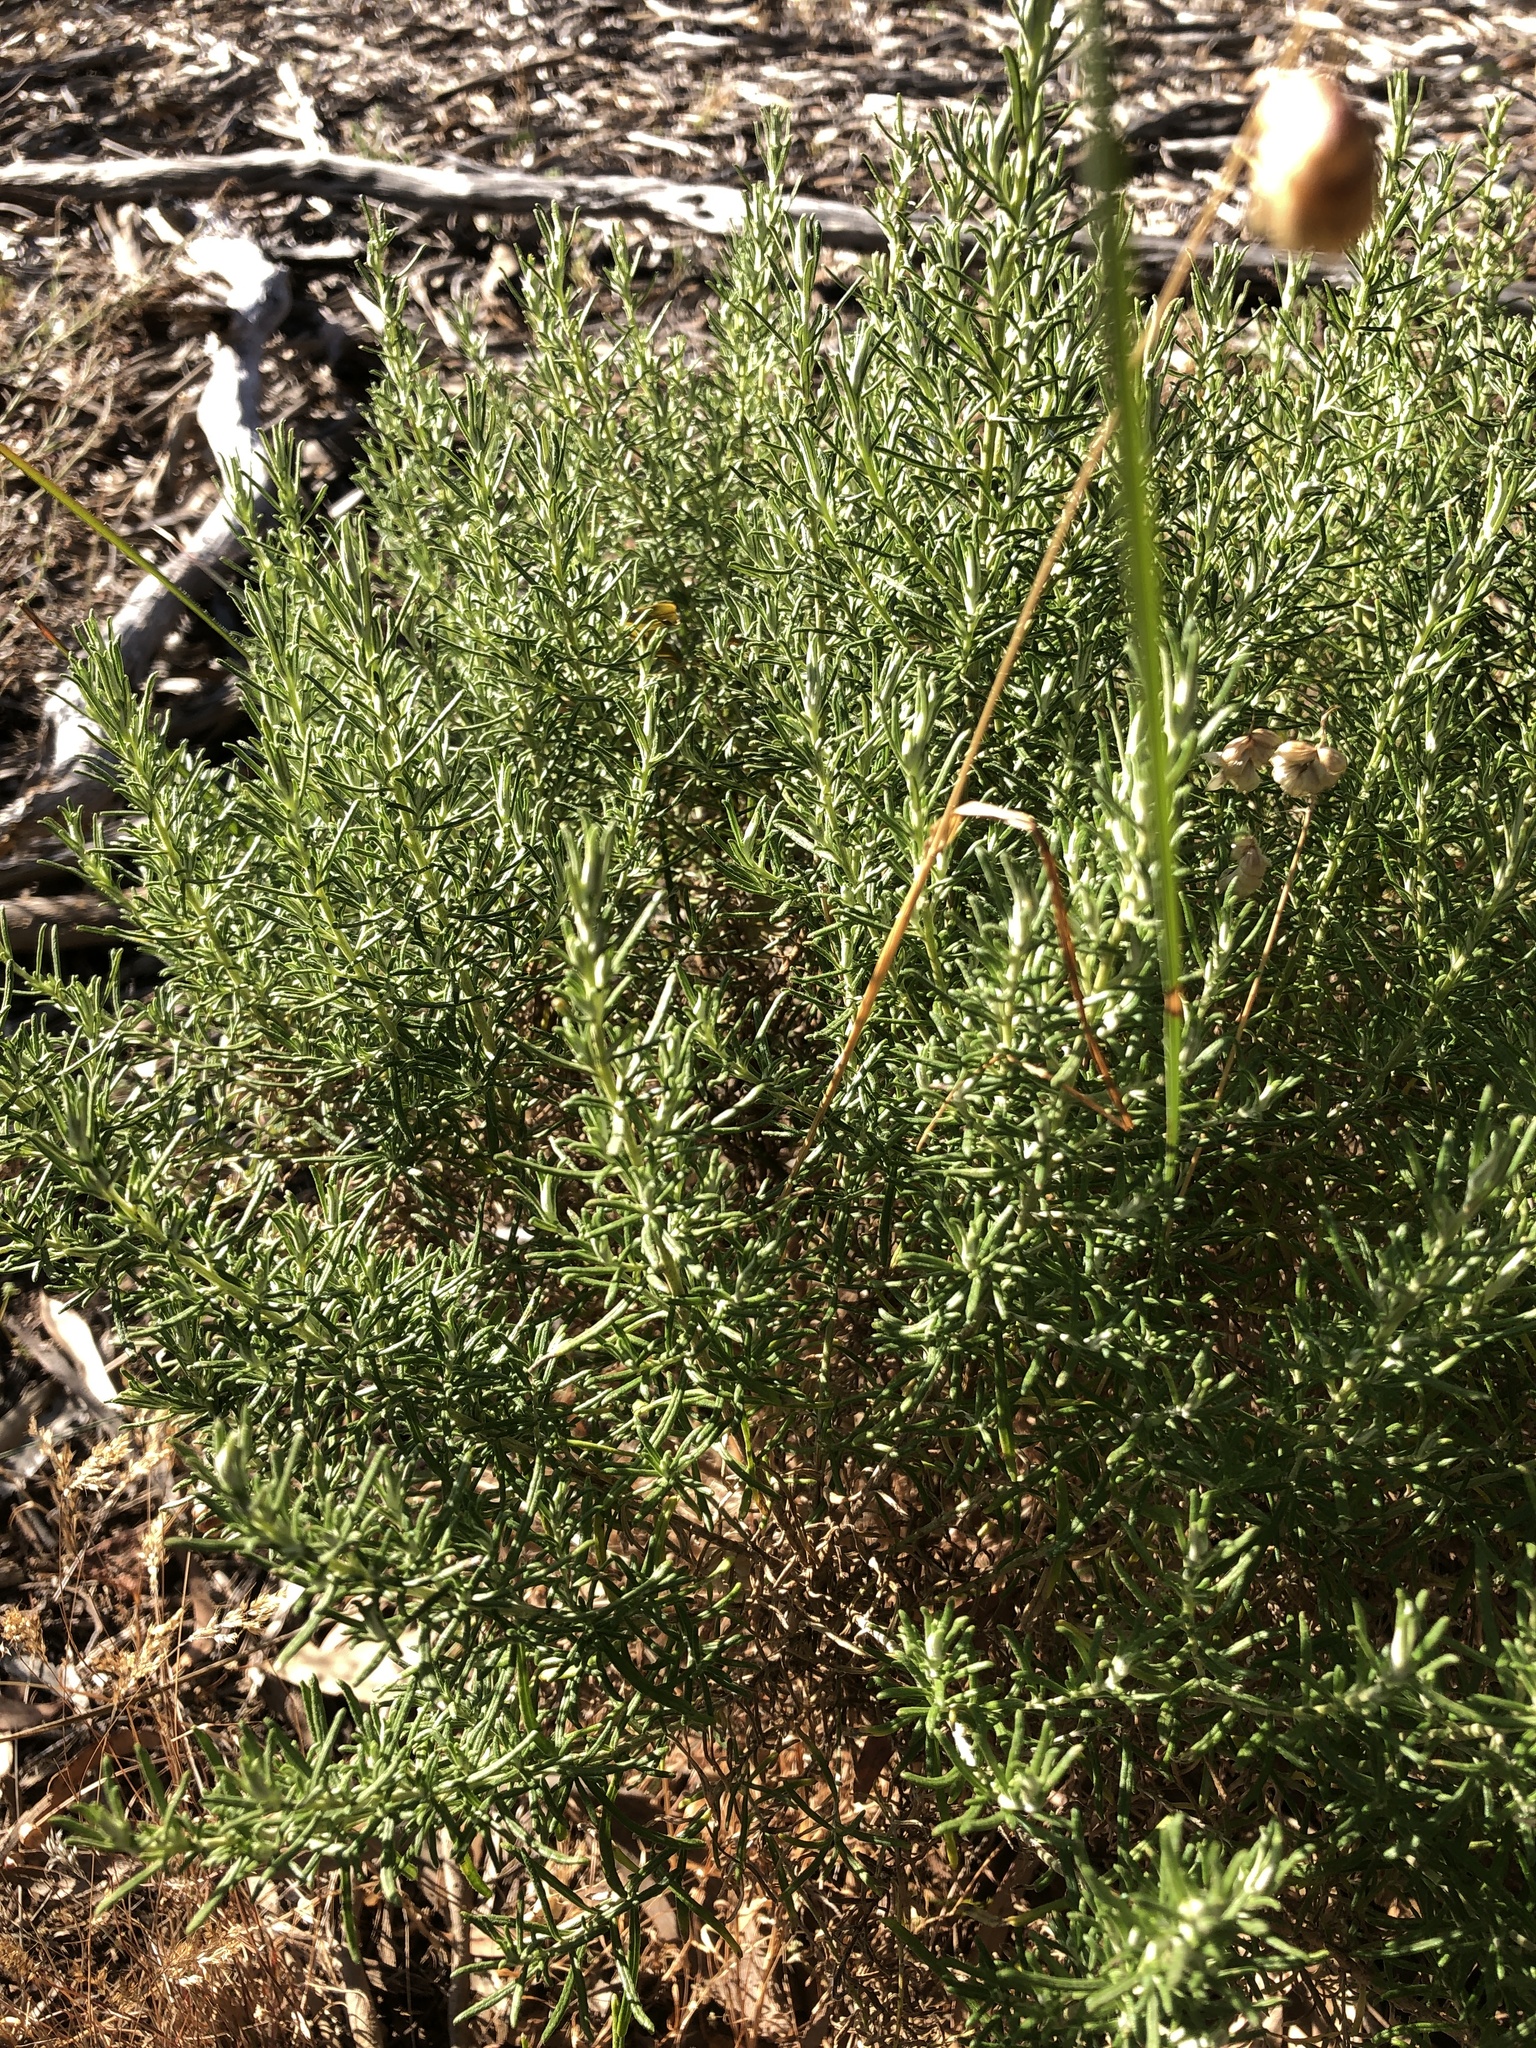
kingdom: Plantae
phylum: Tracheophyta
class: Magnoliopsida
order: Asterales
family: Asteraceae
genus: Olearia
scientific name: Olearia ramulosa
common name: Twiggy daisybush
